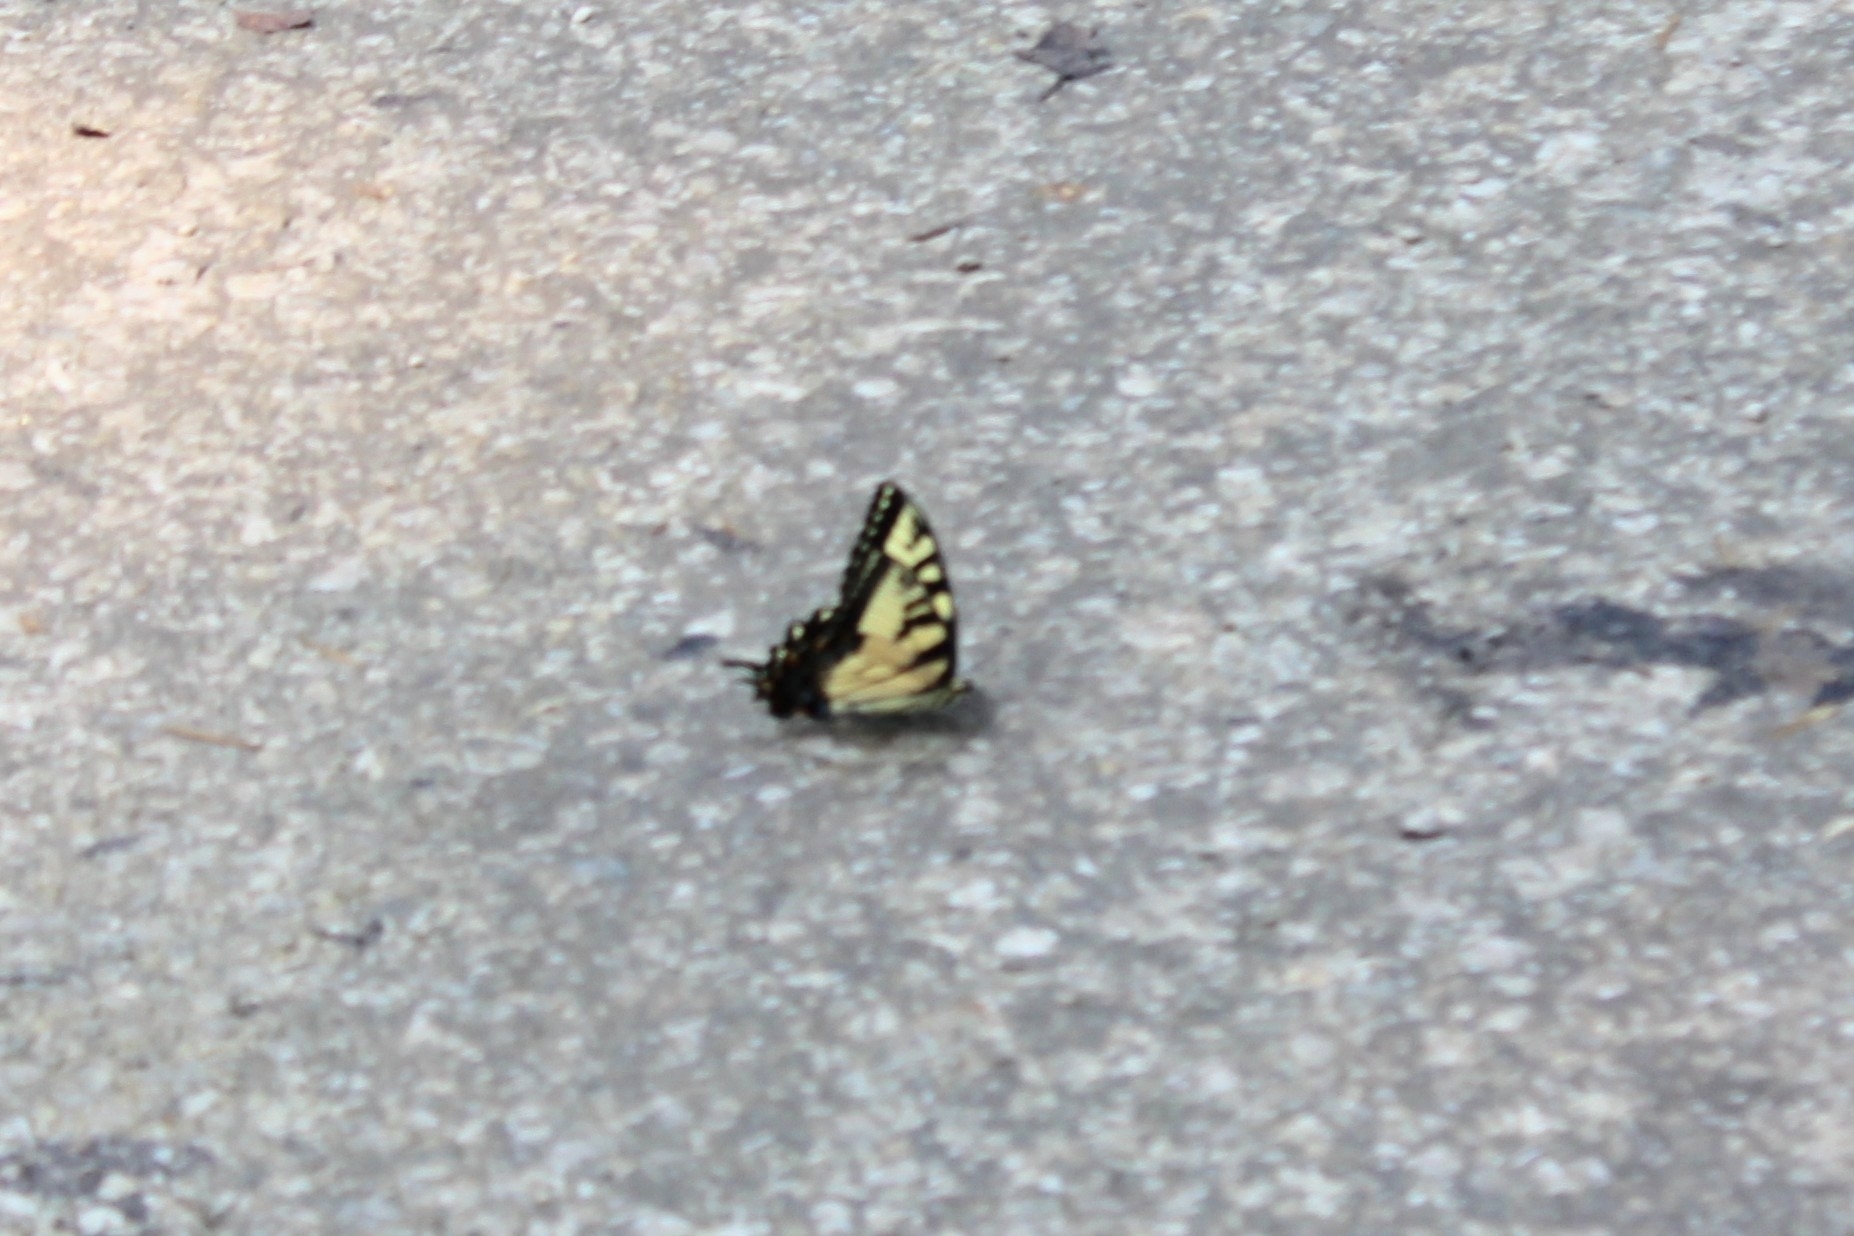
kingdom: Animalia
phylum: Arthropoda
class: Insecta
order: Lepidoptera
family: Papilionidae
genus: Papilio
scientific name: Papilio glaucus
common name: Tiger swallowtail
